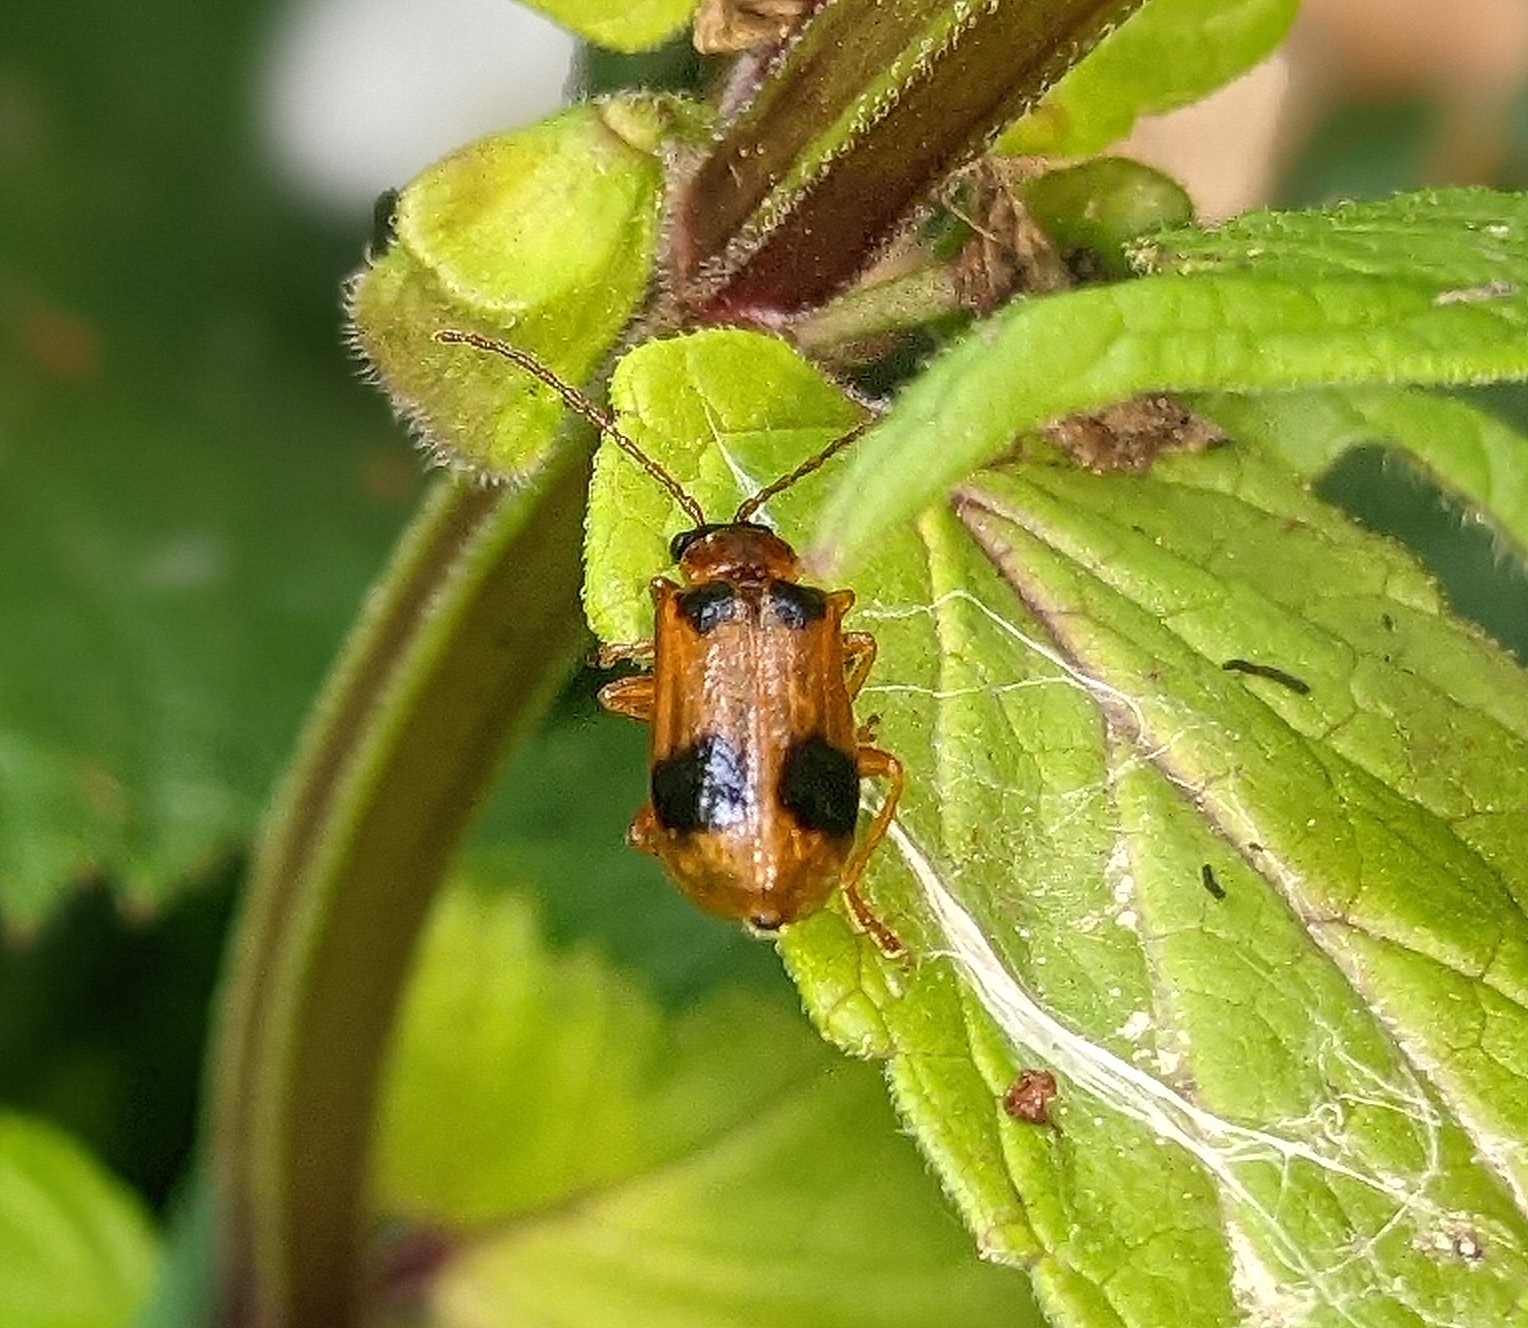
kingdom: Animalia
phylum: Arthropoda
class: Insecta
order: Coleoptera
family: Chrysomelidae
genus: Phyllobrotica
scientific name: Phyllobrotica quadrimaculata
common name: Skullcap leaf beetle
